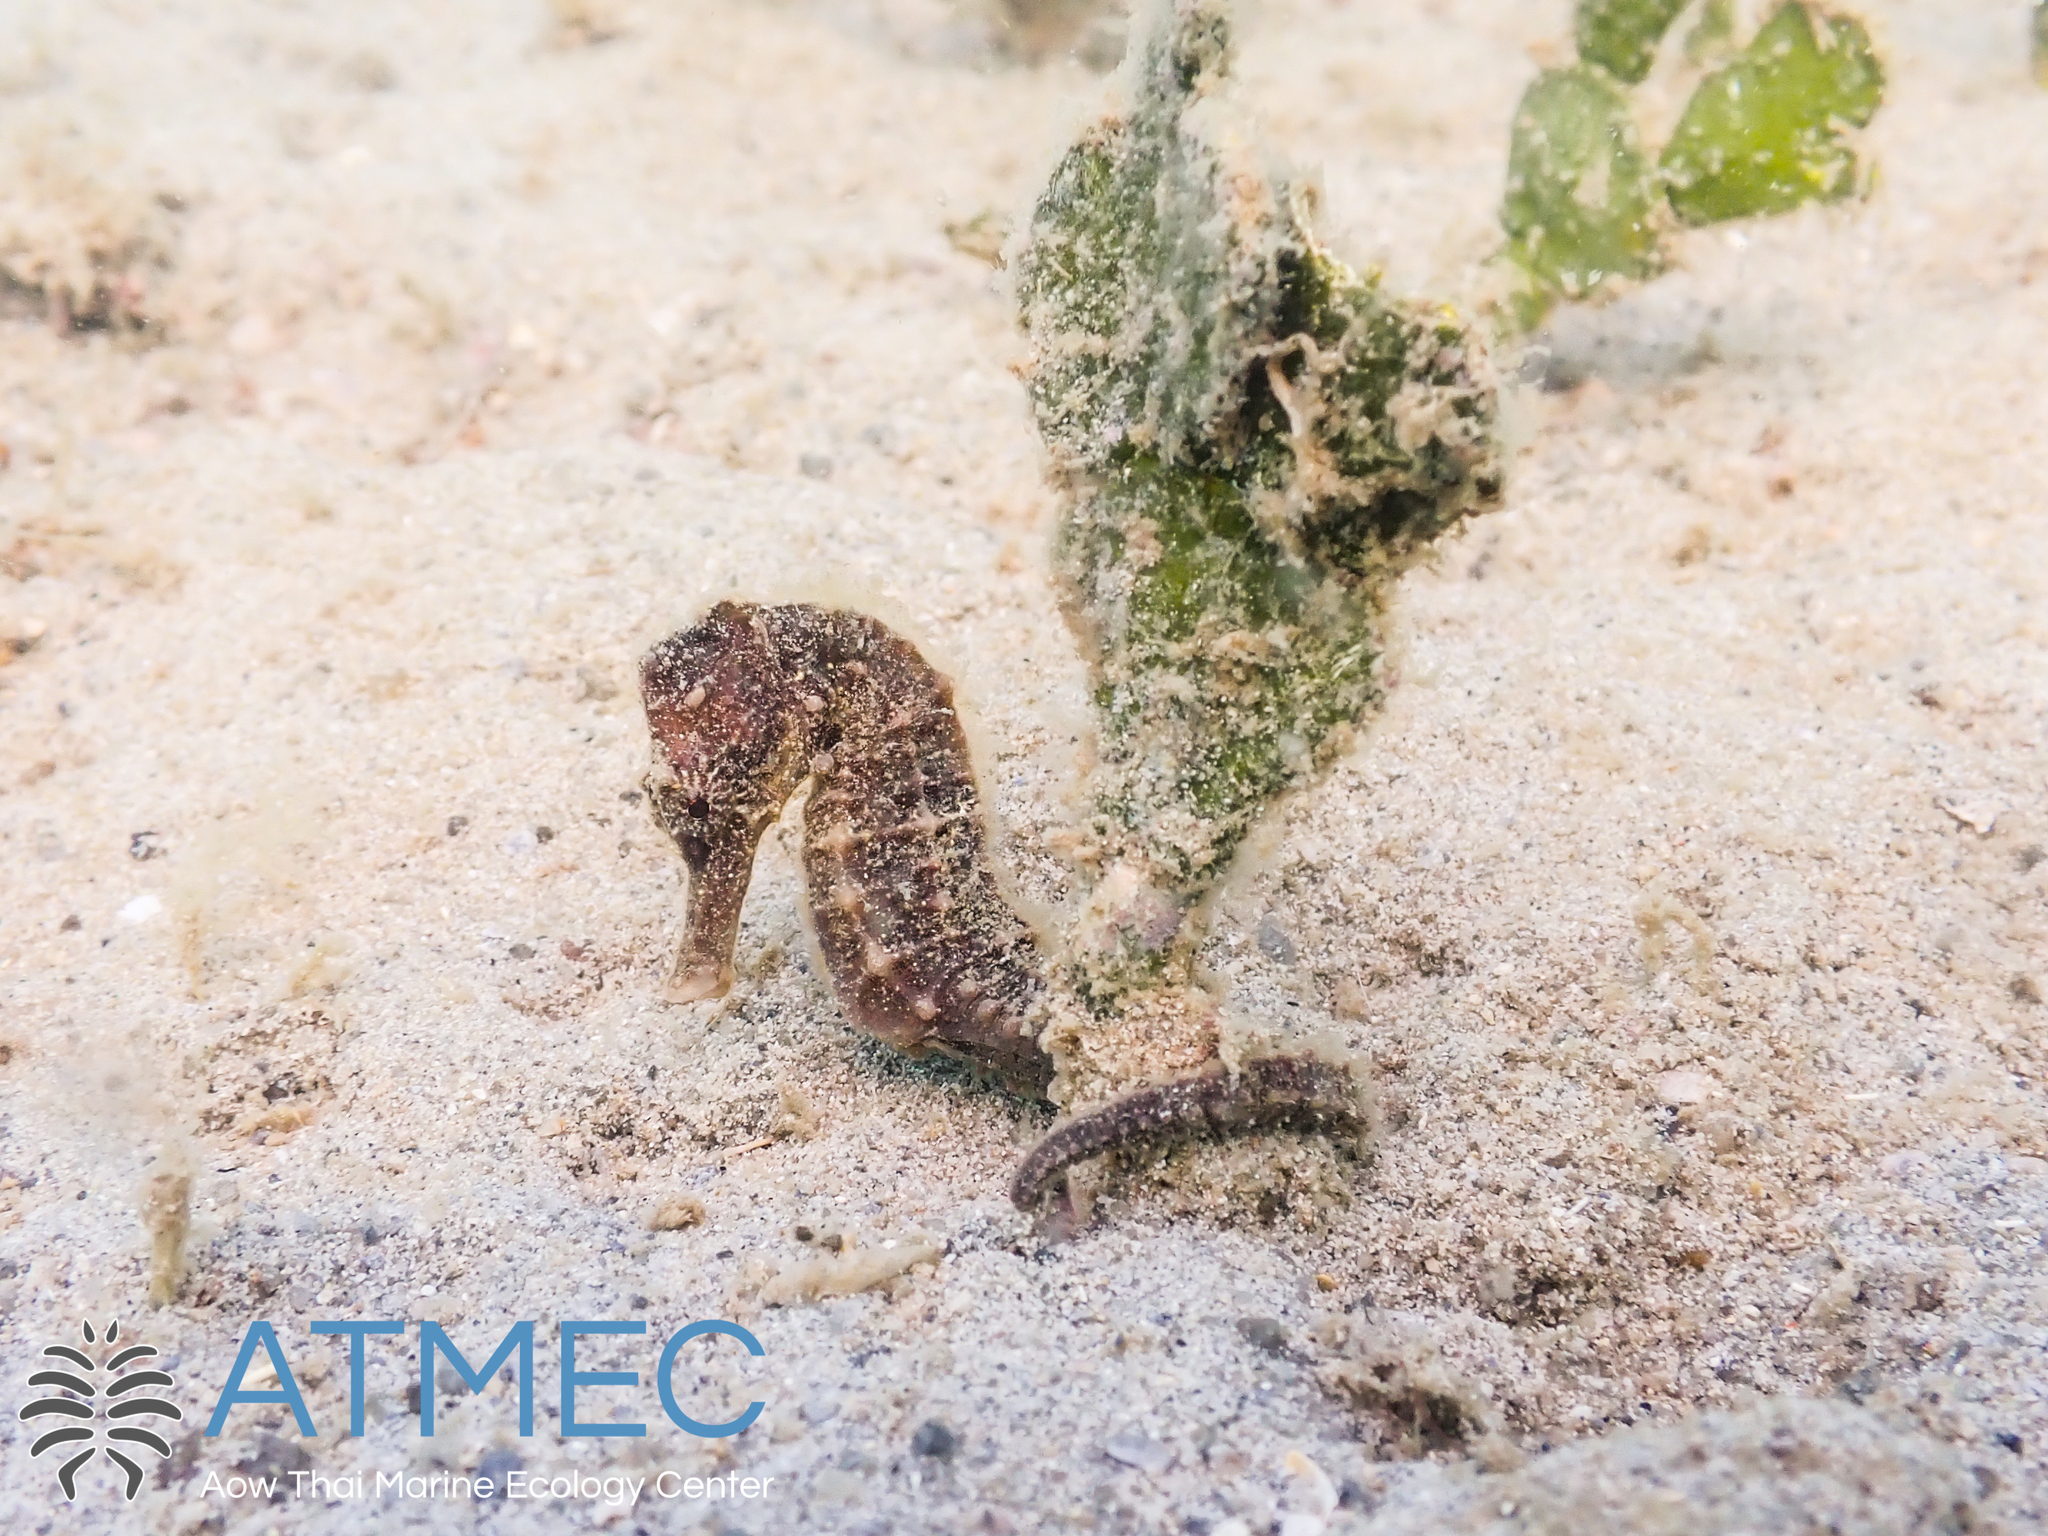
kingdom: Animalia
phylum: Chordata
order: Syngnathiformes
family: Syngnathidae
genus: Hippocampus
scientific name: Hippocampus kuda
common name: Spotted seahorse
